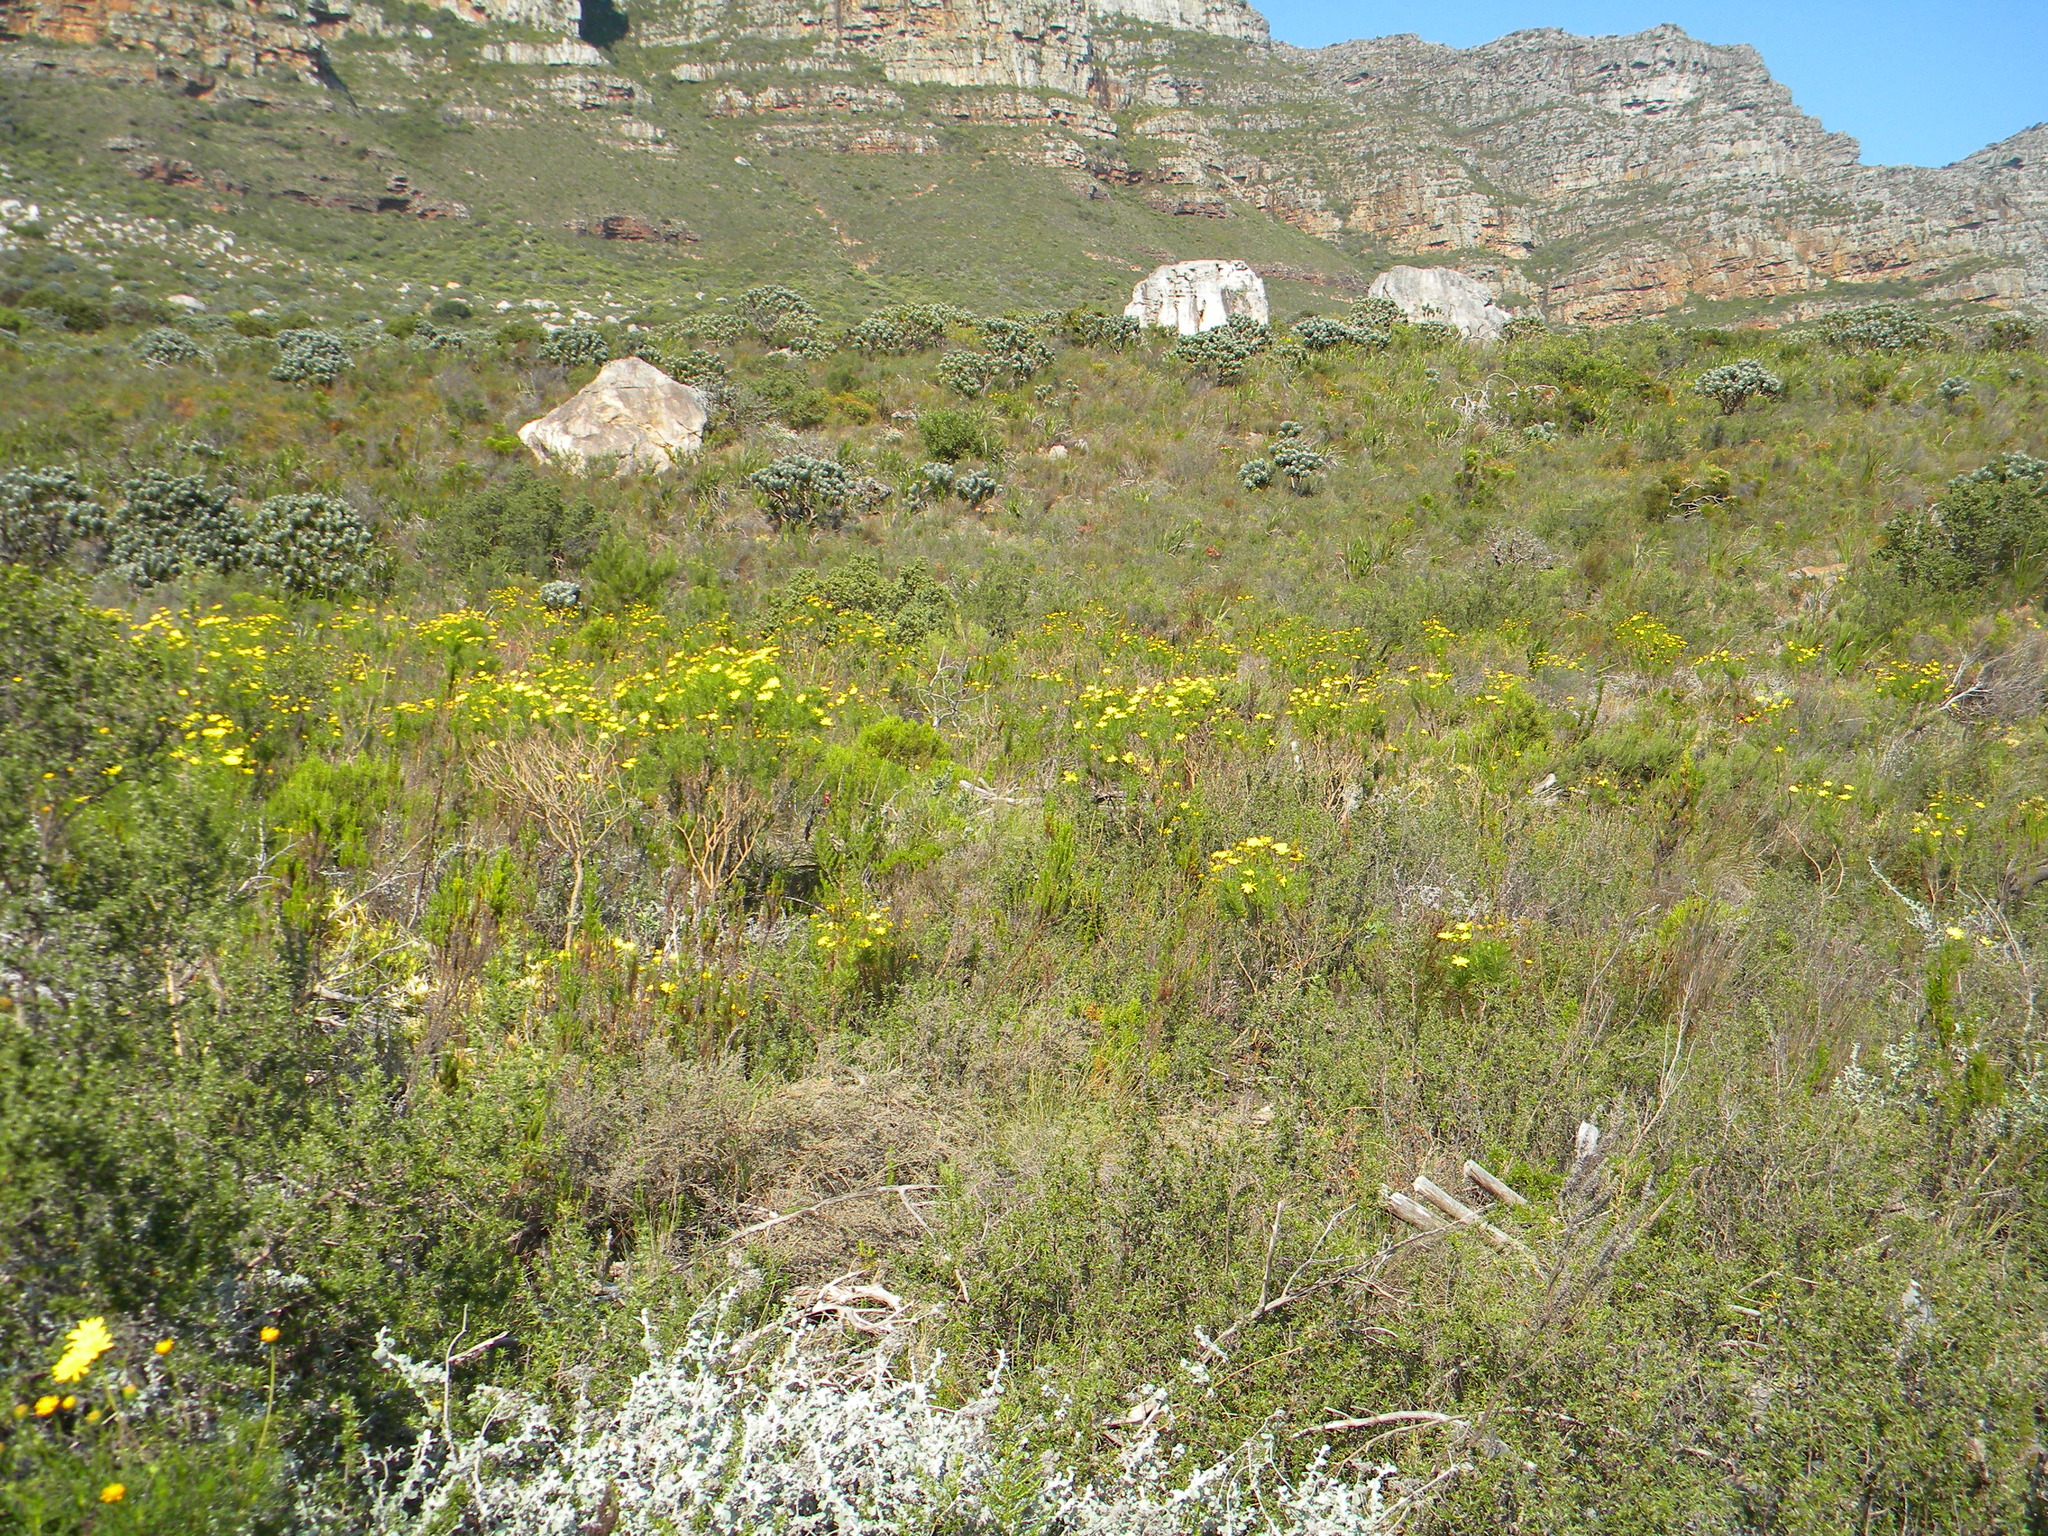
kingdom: Plantae
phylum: Tracheophyta
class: Magnoliopsida
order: Asterales
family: Asteraceae
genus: Euryops
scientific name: Euryops abrotanifolius
